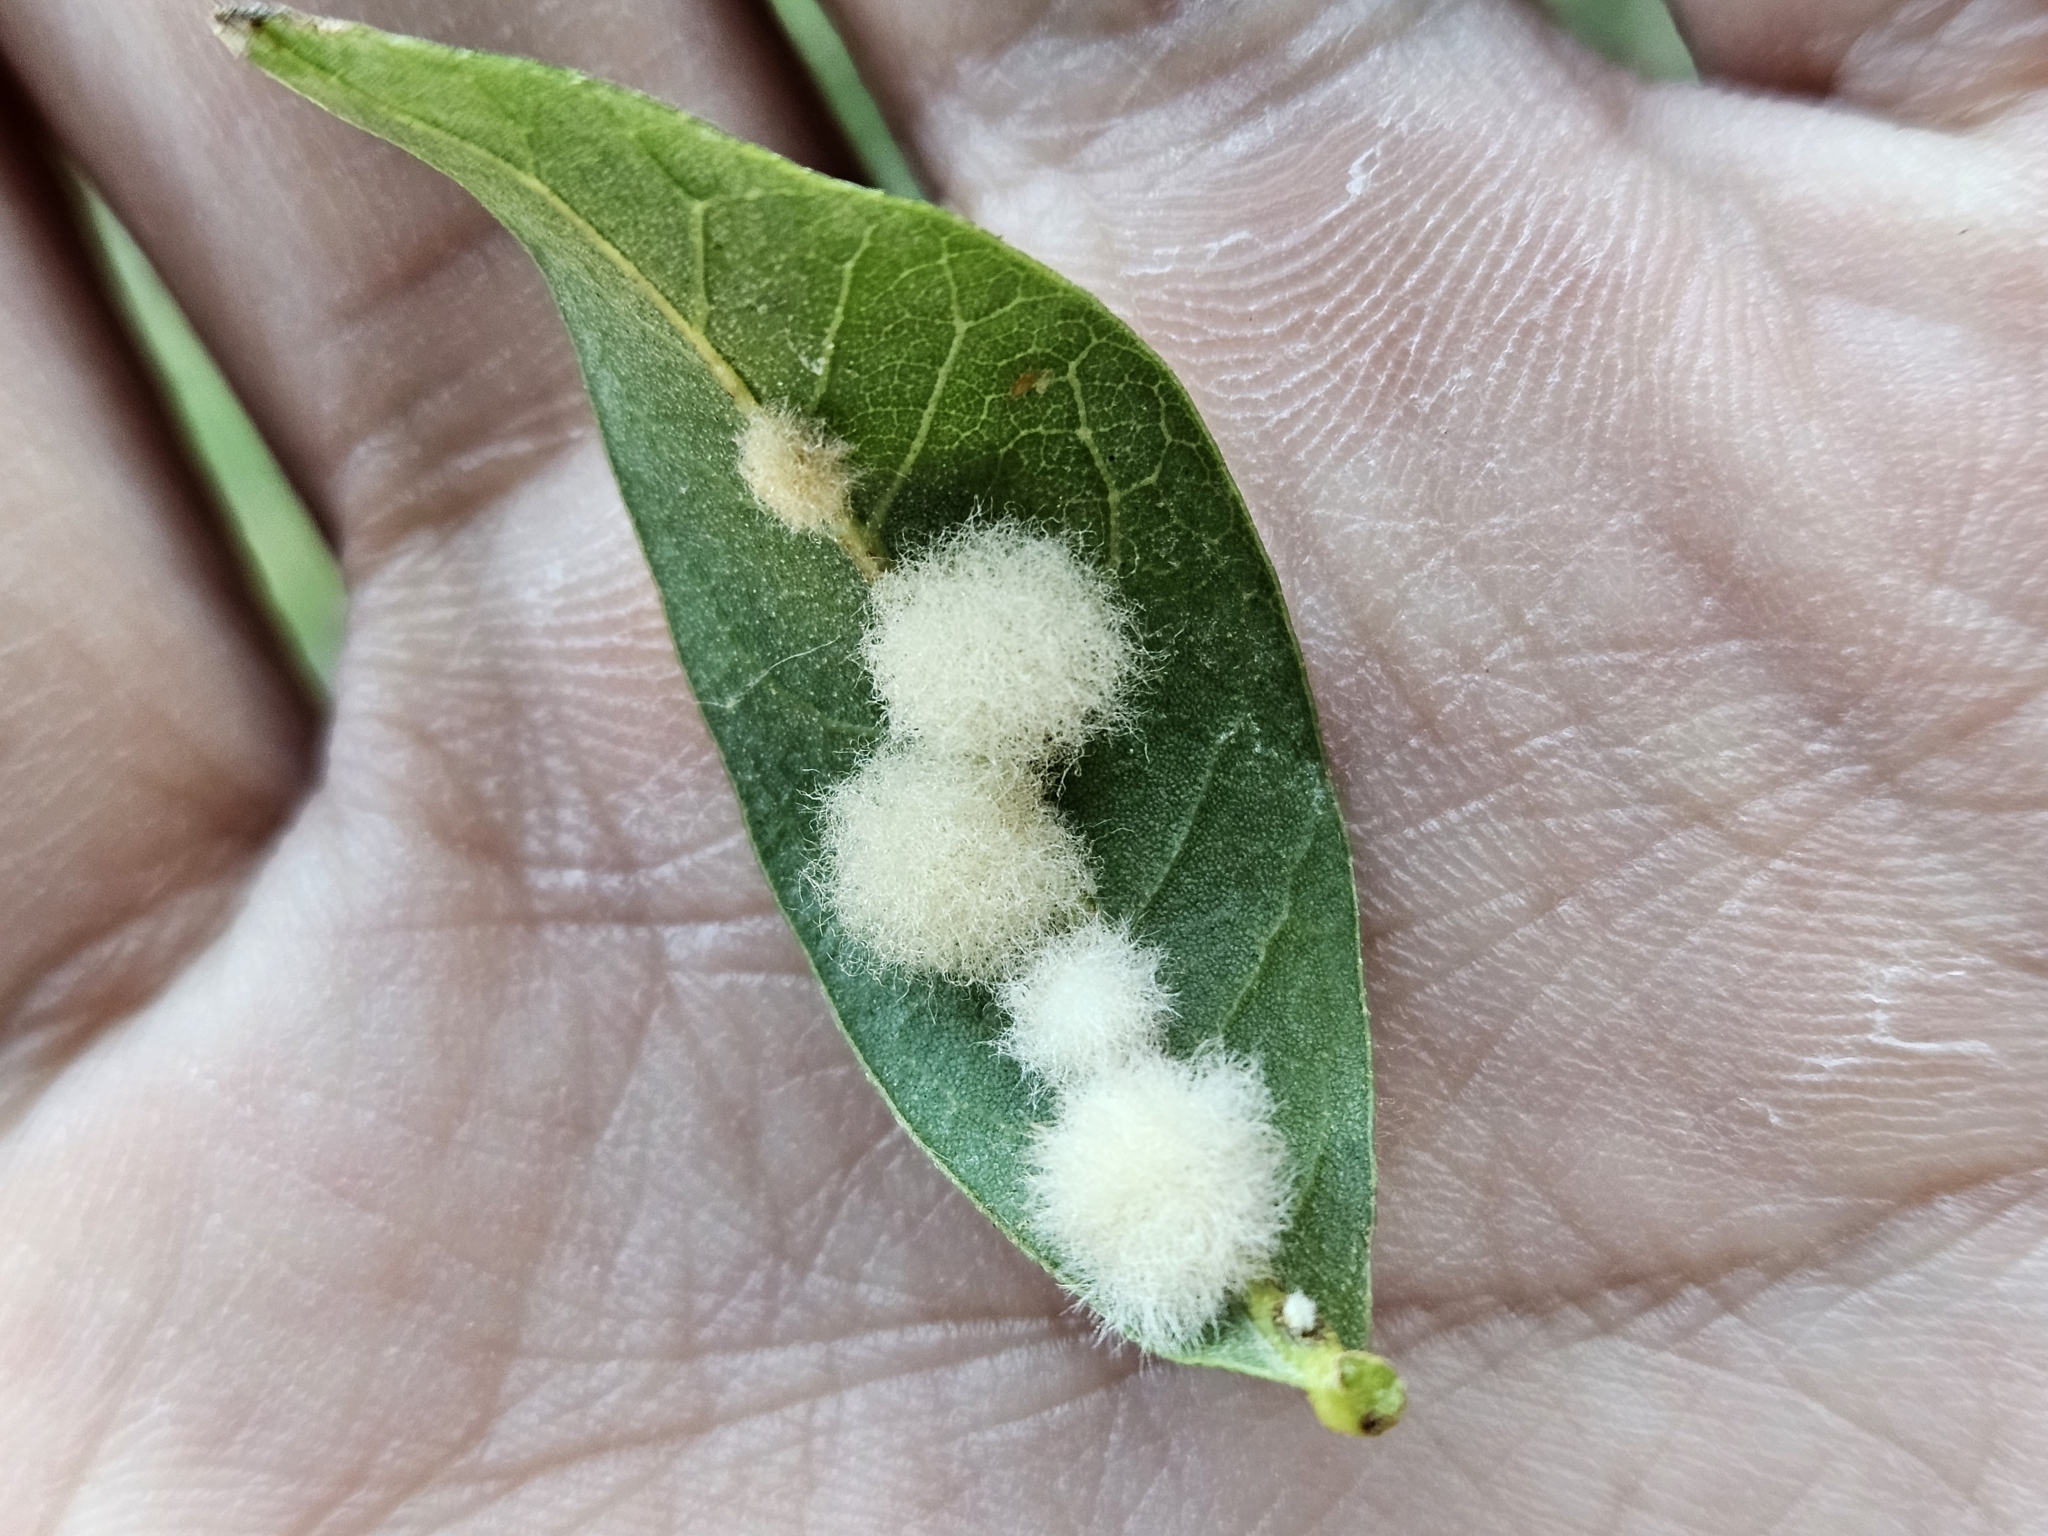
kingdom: Animalia
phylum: Arthropoda
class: Insecta
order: Hymenoptera
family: Cynipidae
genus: Andricus
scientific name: Andricus Druon quercuslanigerum
